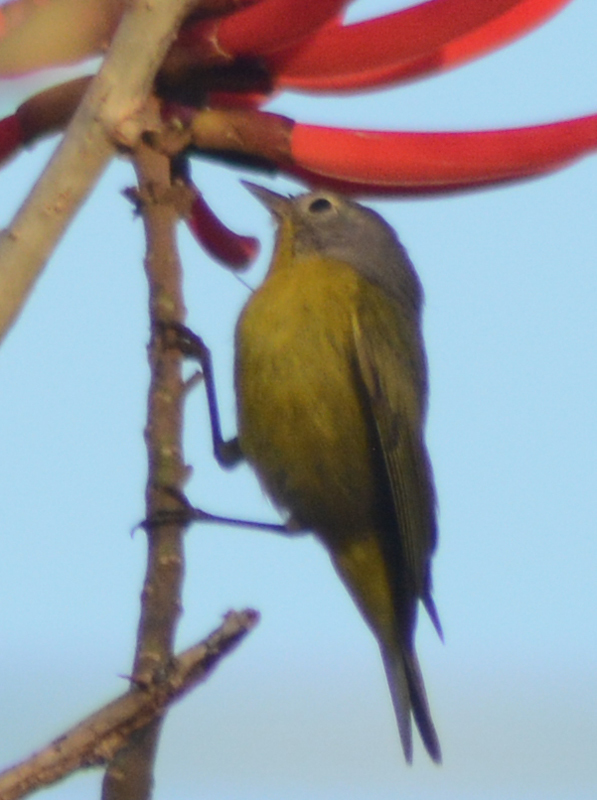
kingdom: Animalia
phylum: Chordata
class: Aves
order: Passeriformes
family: Parulidae
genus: Leiothlypis
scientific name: Leiothlypis ruficapilla
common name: Nashville warbler
